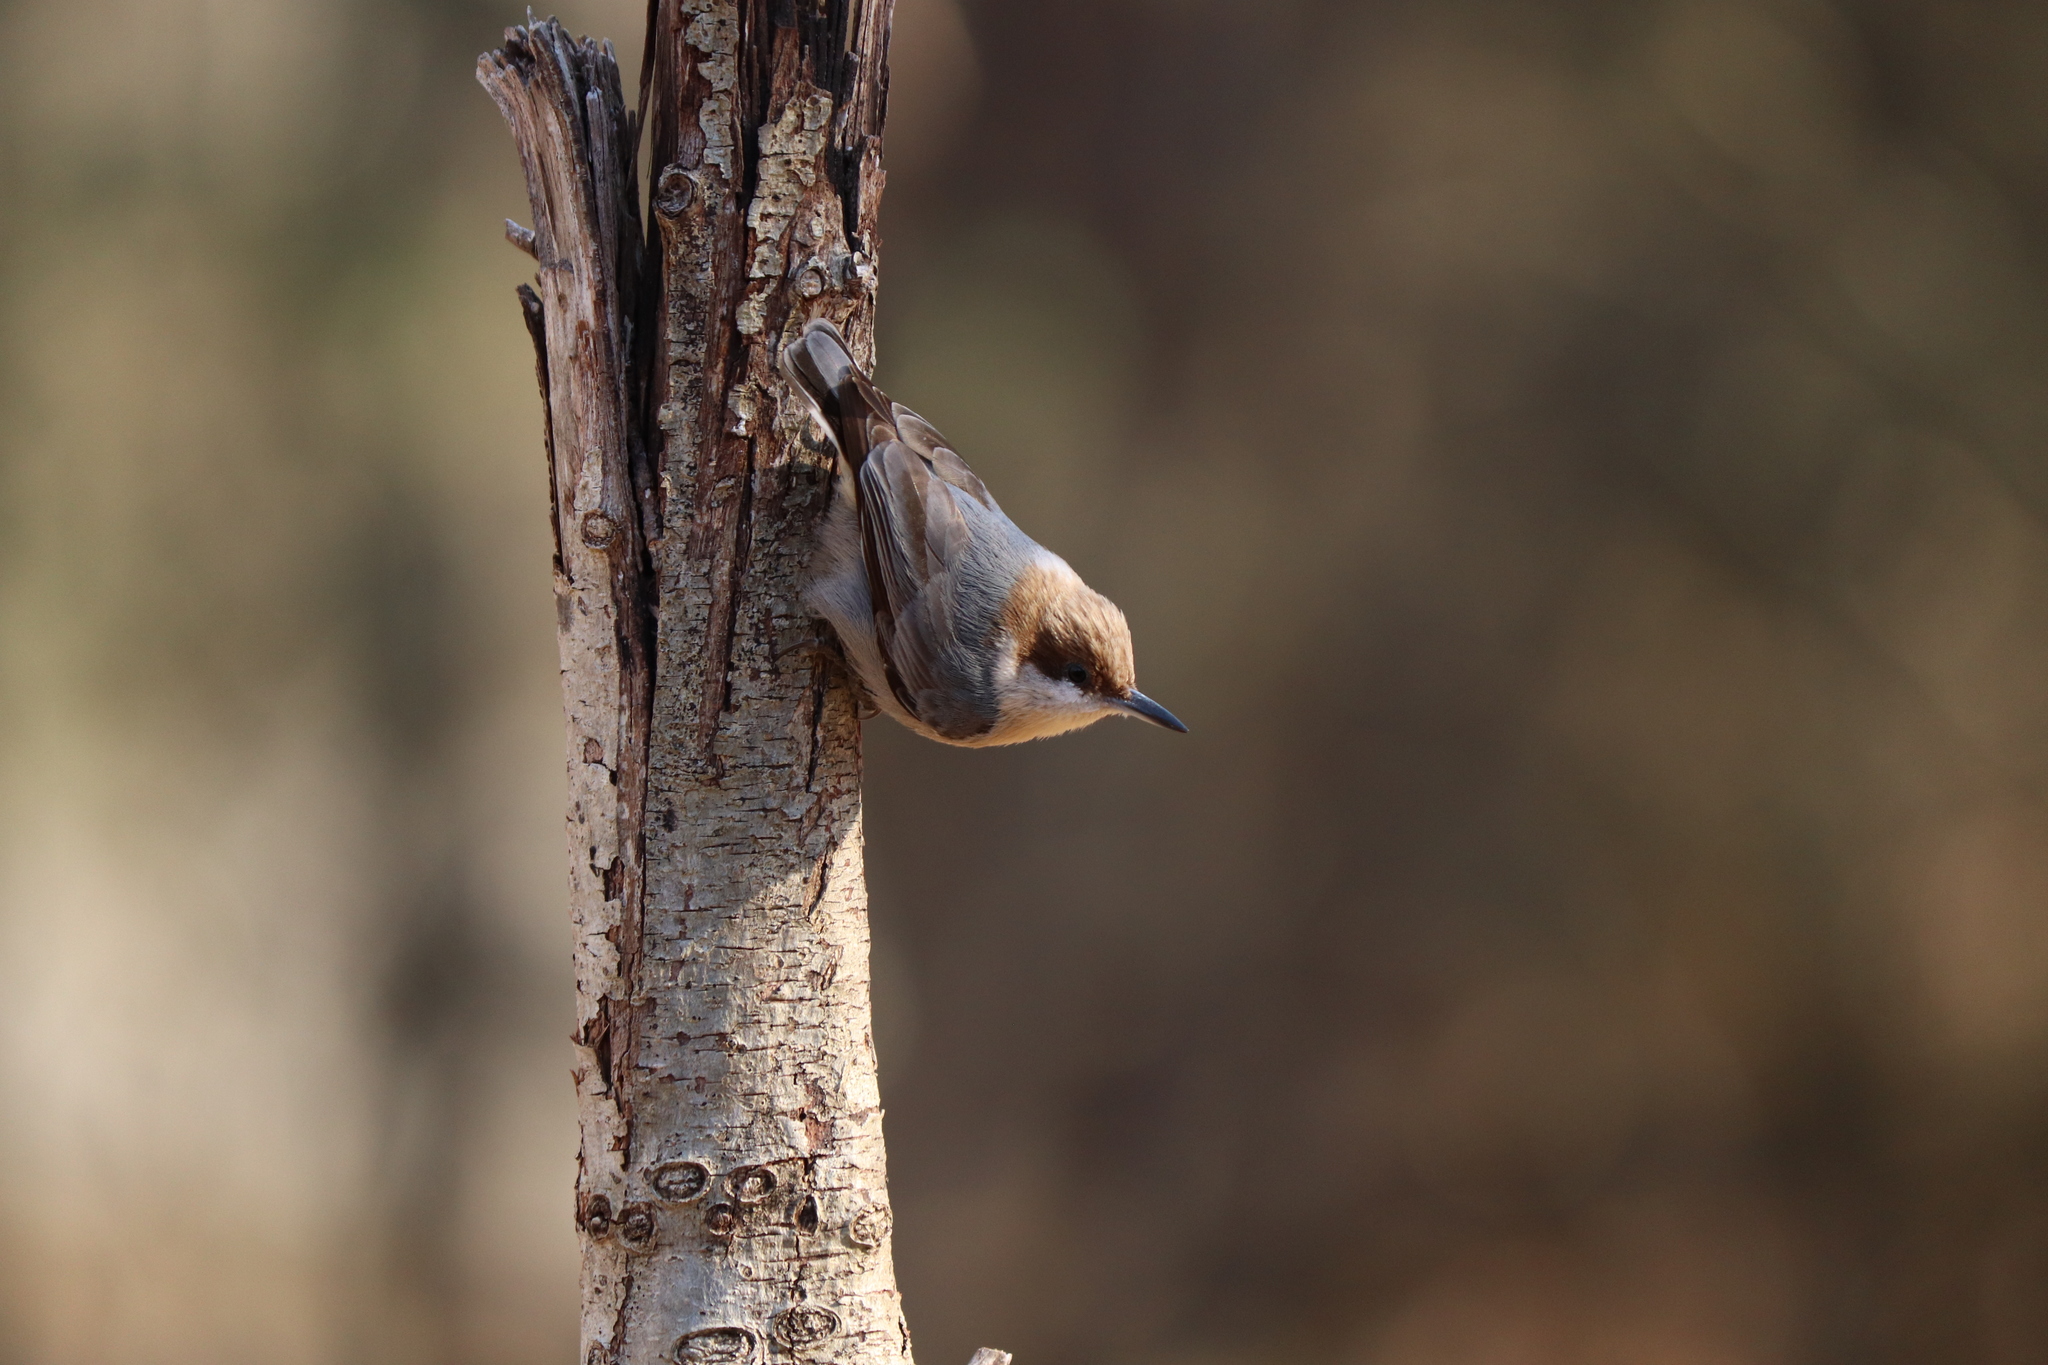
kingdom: Animalia
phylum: Chordata
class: Aves
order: Passeriformes
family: Sittidae
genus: Sitta
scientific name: Sitta pusilla
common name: Brown-headed nuthatch
